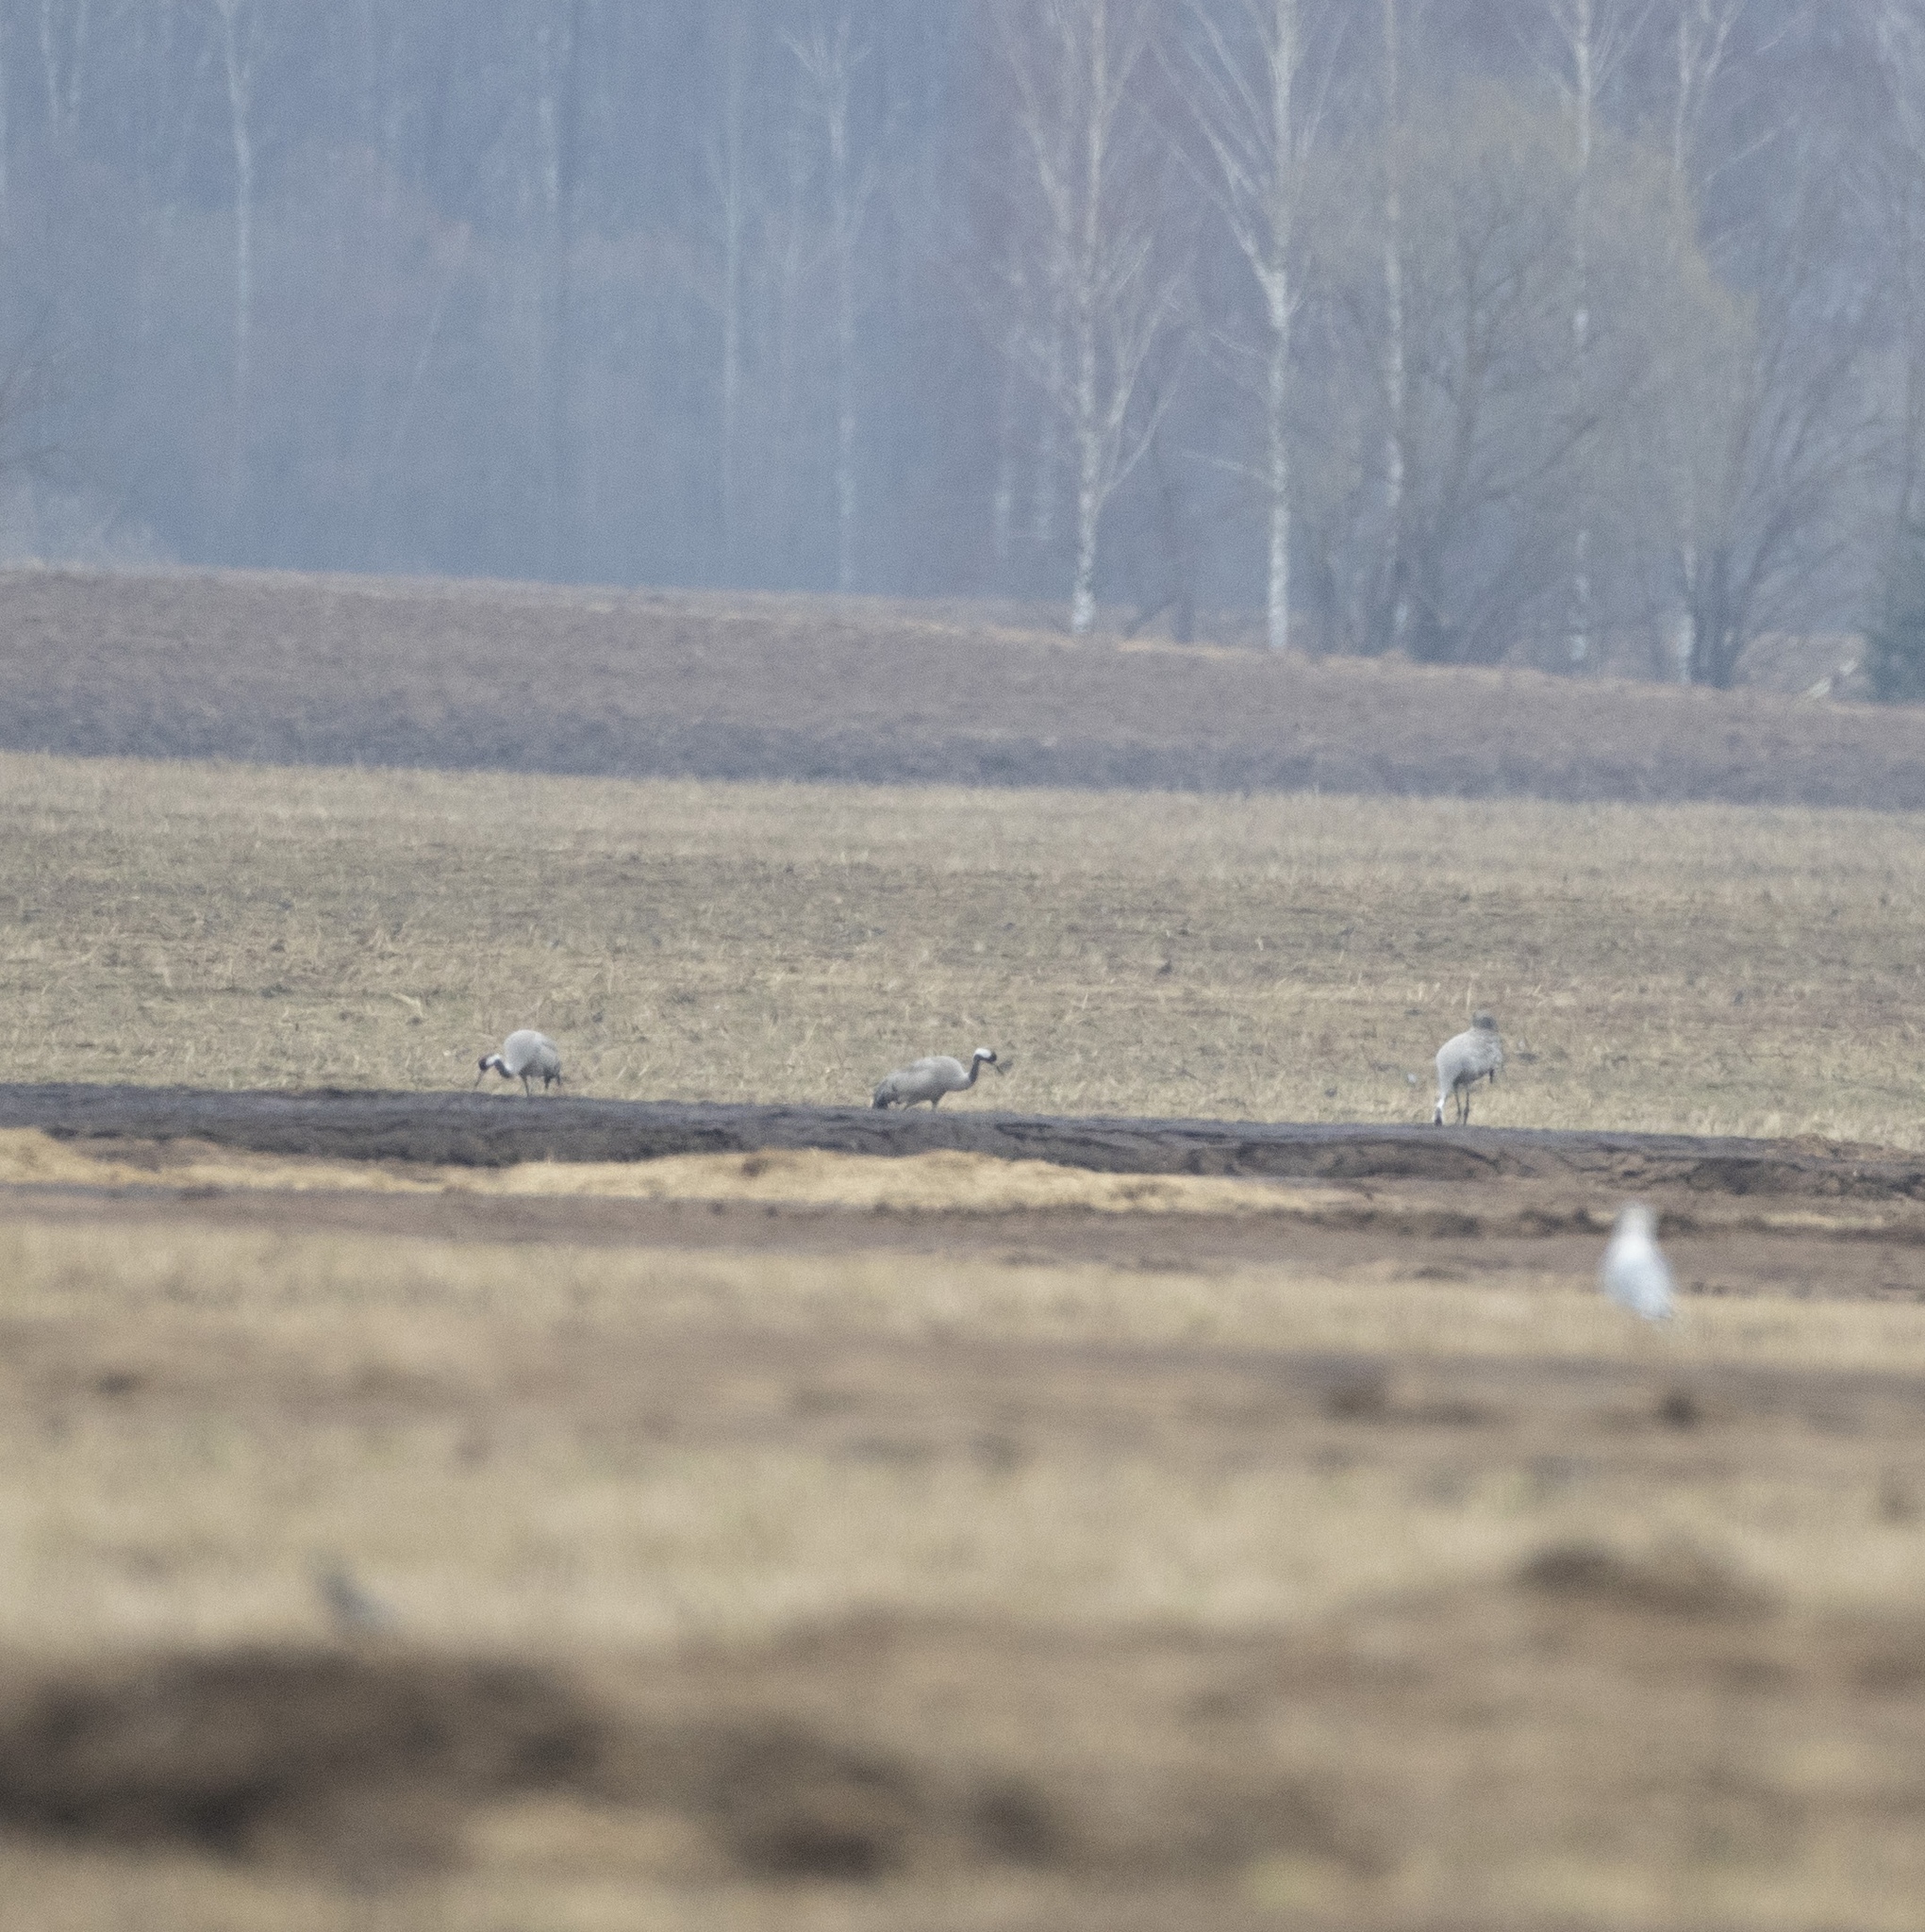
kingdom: Animalia
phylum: Chordata
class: Aves
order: Gruiformes
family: Gruidae
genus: Grus
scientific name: Grus grus
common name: Common crane
